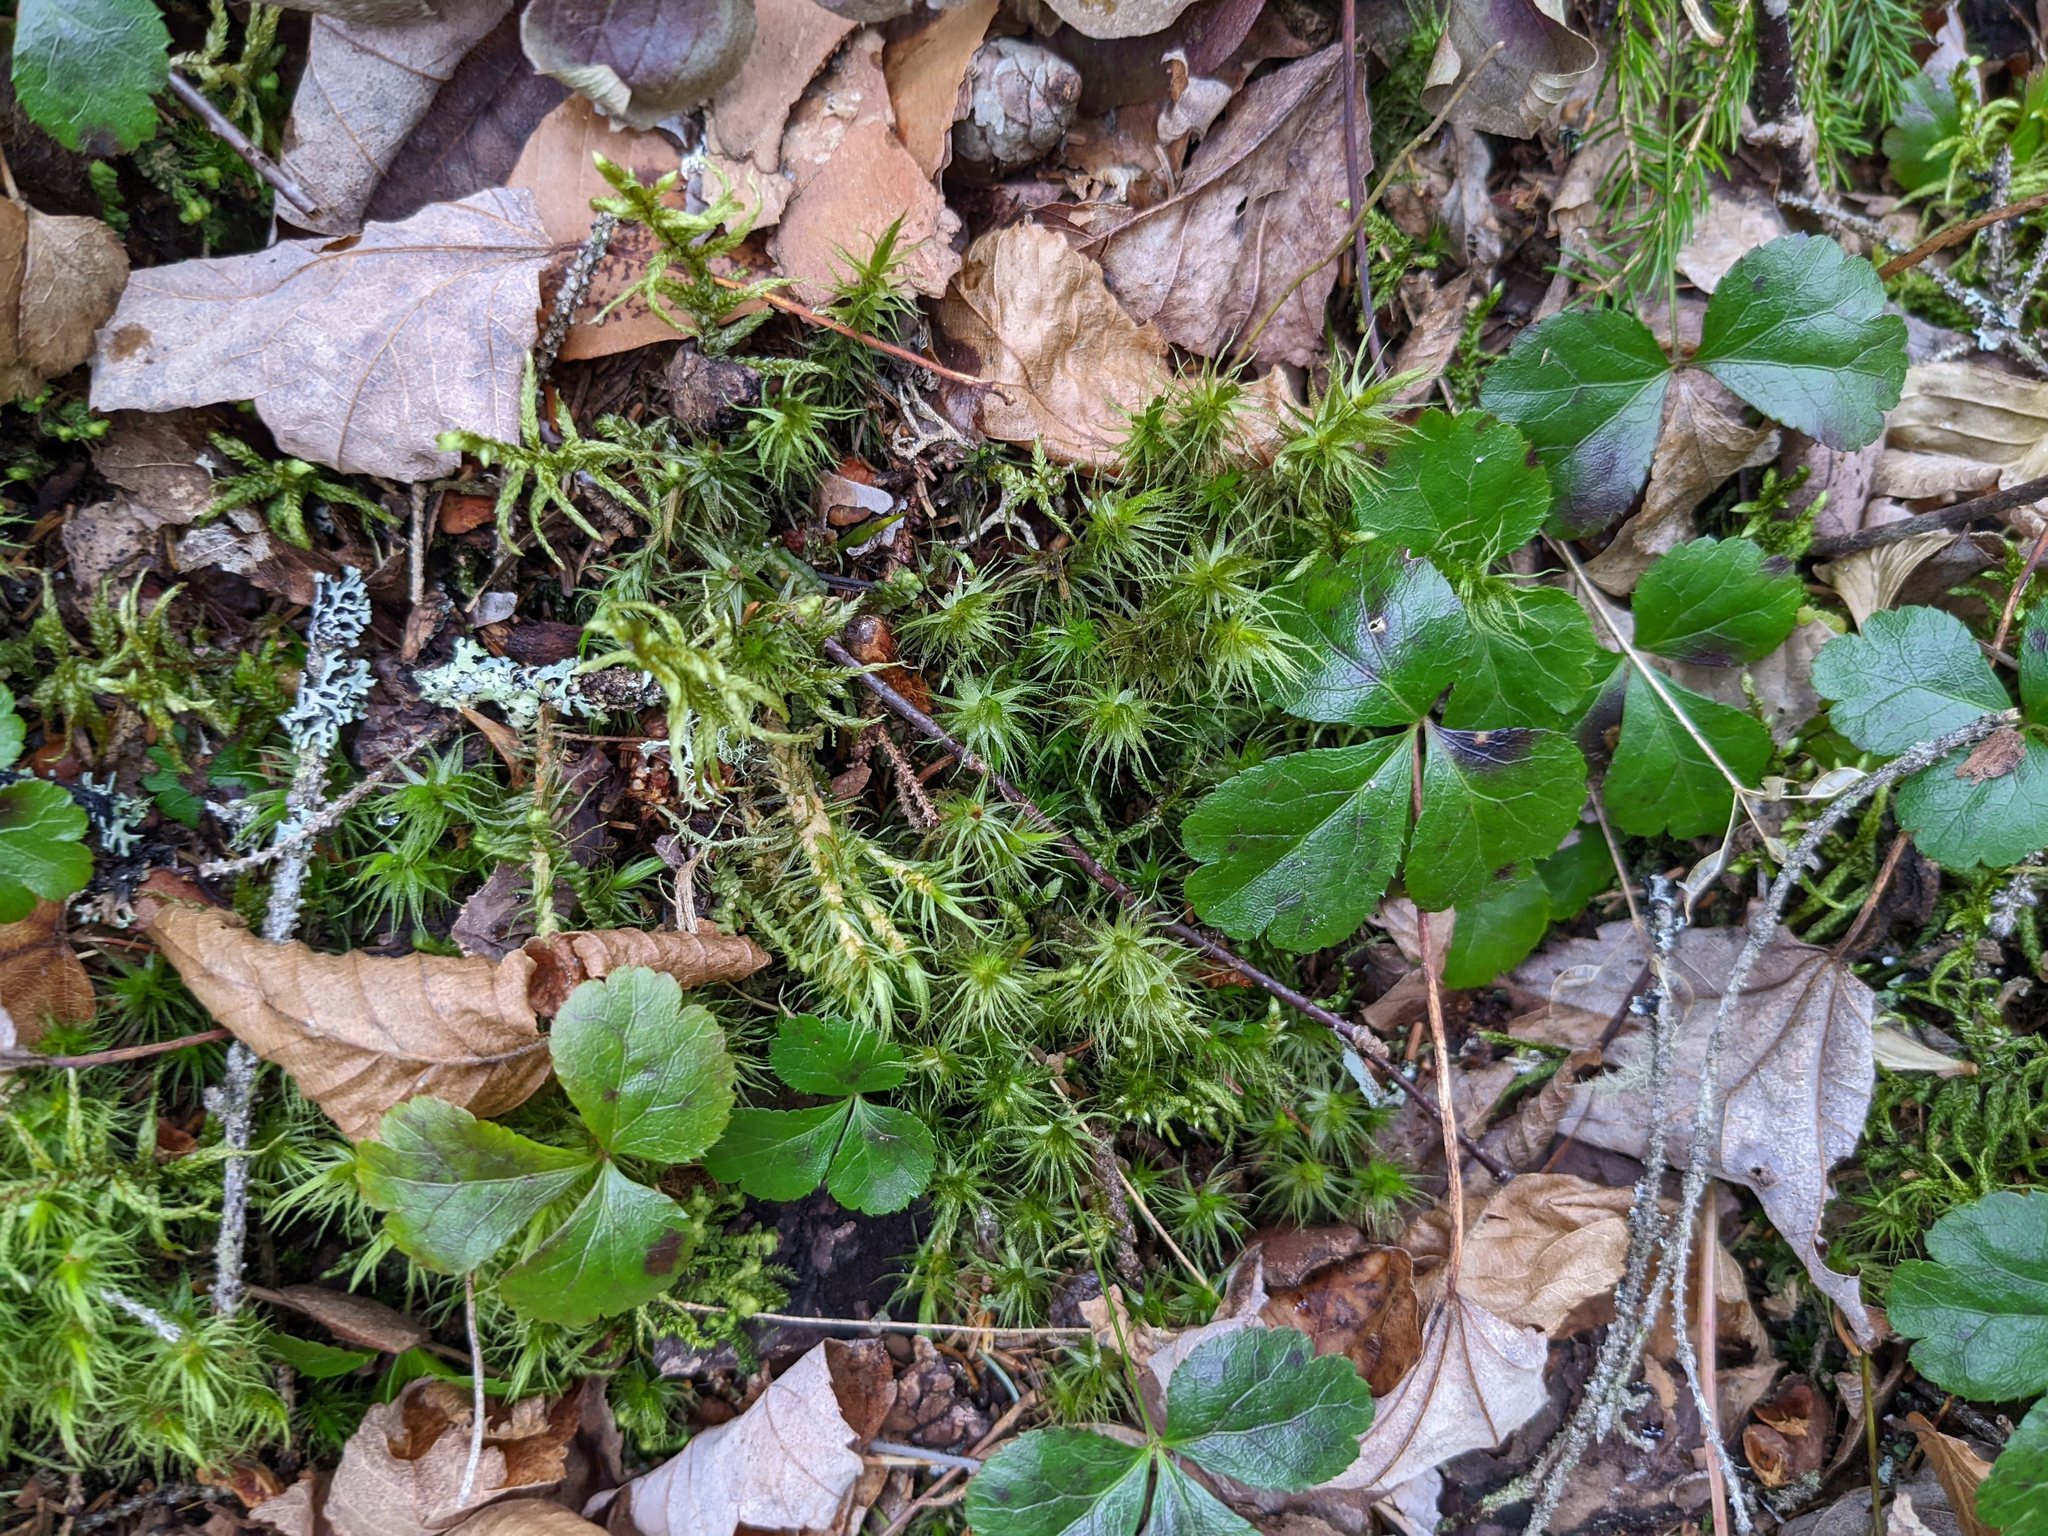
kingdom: Plantae
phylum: Tracheophyta
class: Magnoliopsida
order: Ranunculales
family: Ranunculaceae
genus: Coptis
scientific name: Coptis trifolia
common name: Canker-root
